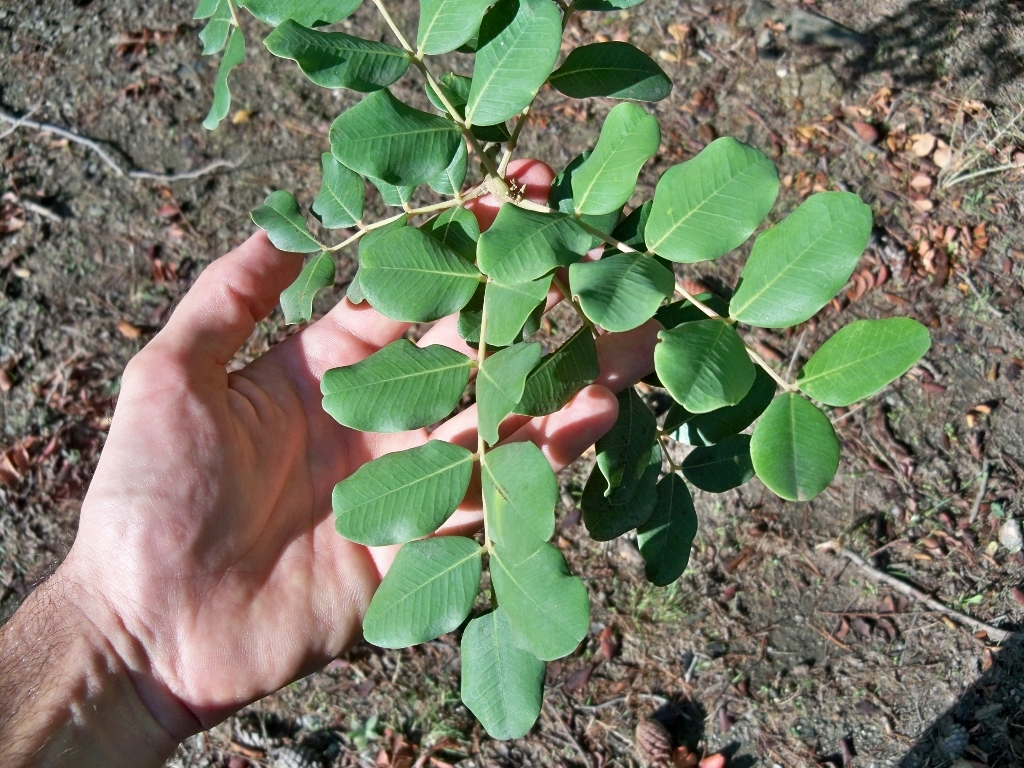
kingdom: Plantae
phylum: Tracheophyta
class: Magnoliopsida
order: Fabales
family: Fabaceae
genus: Ceratonia
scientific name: Ceratonia siliqua
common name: Carob
